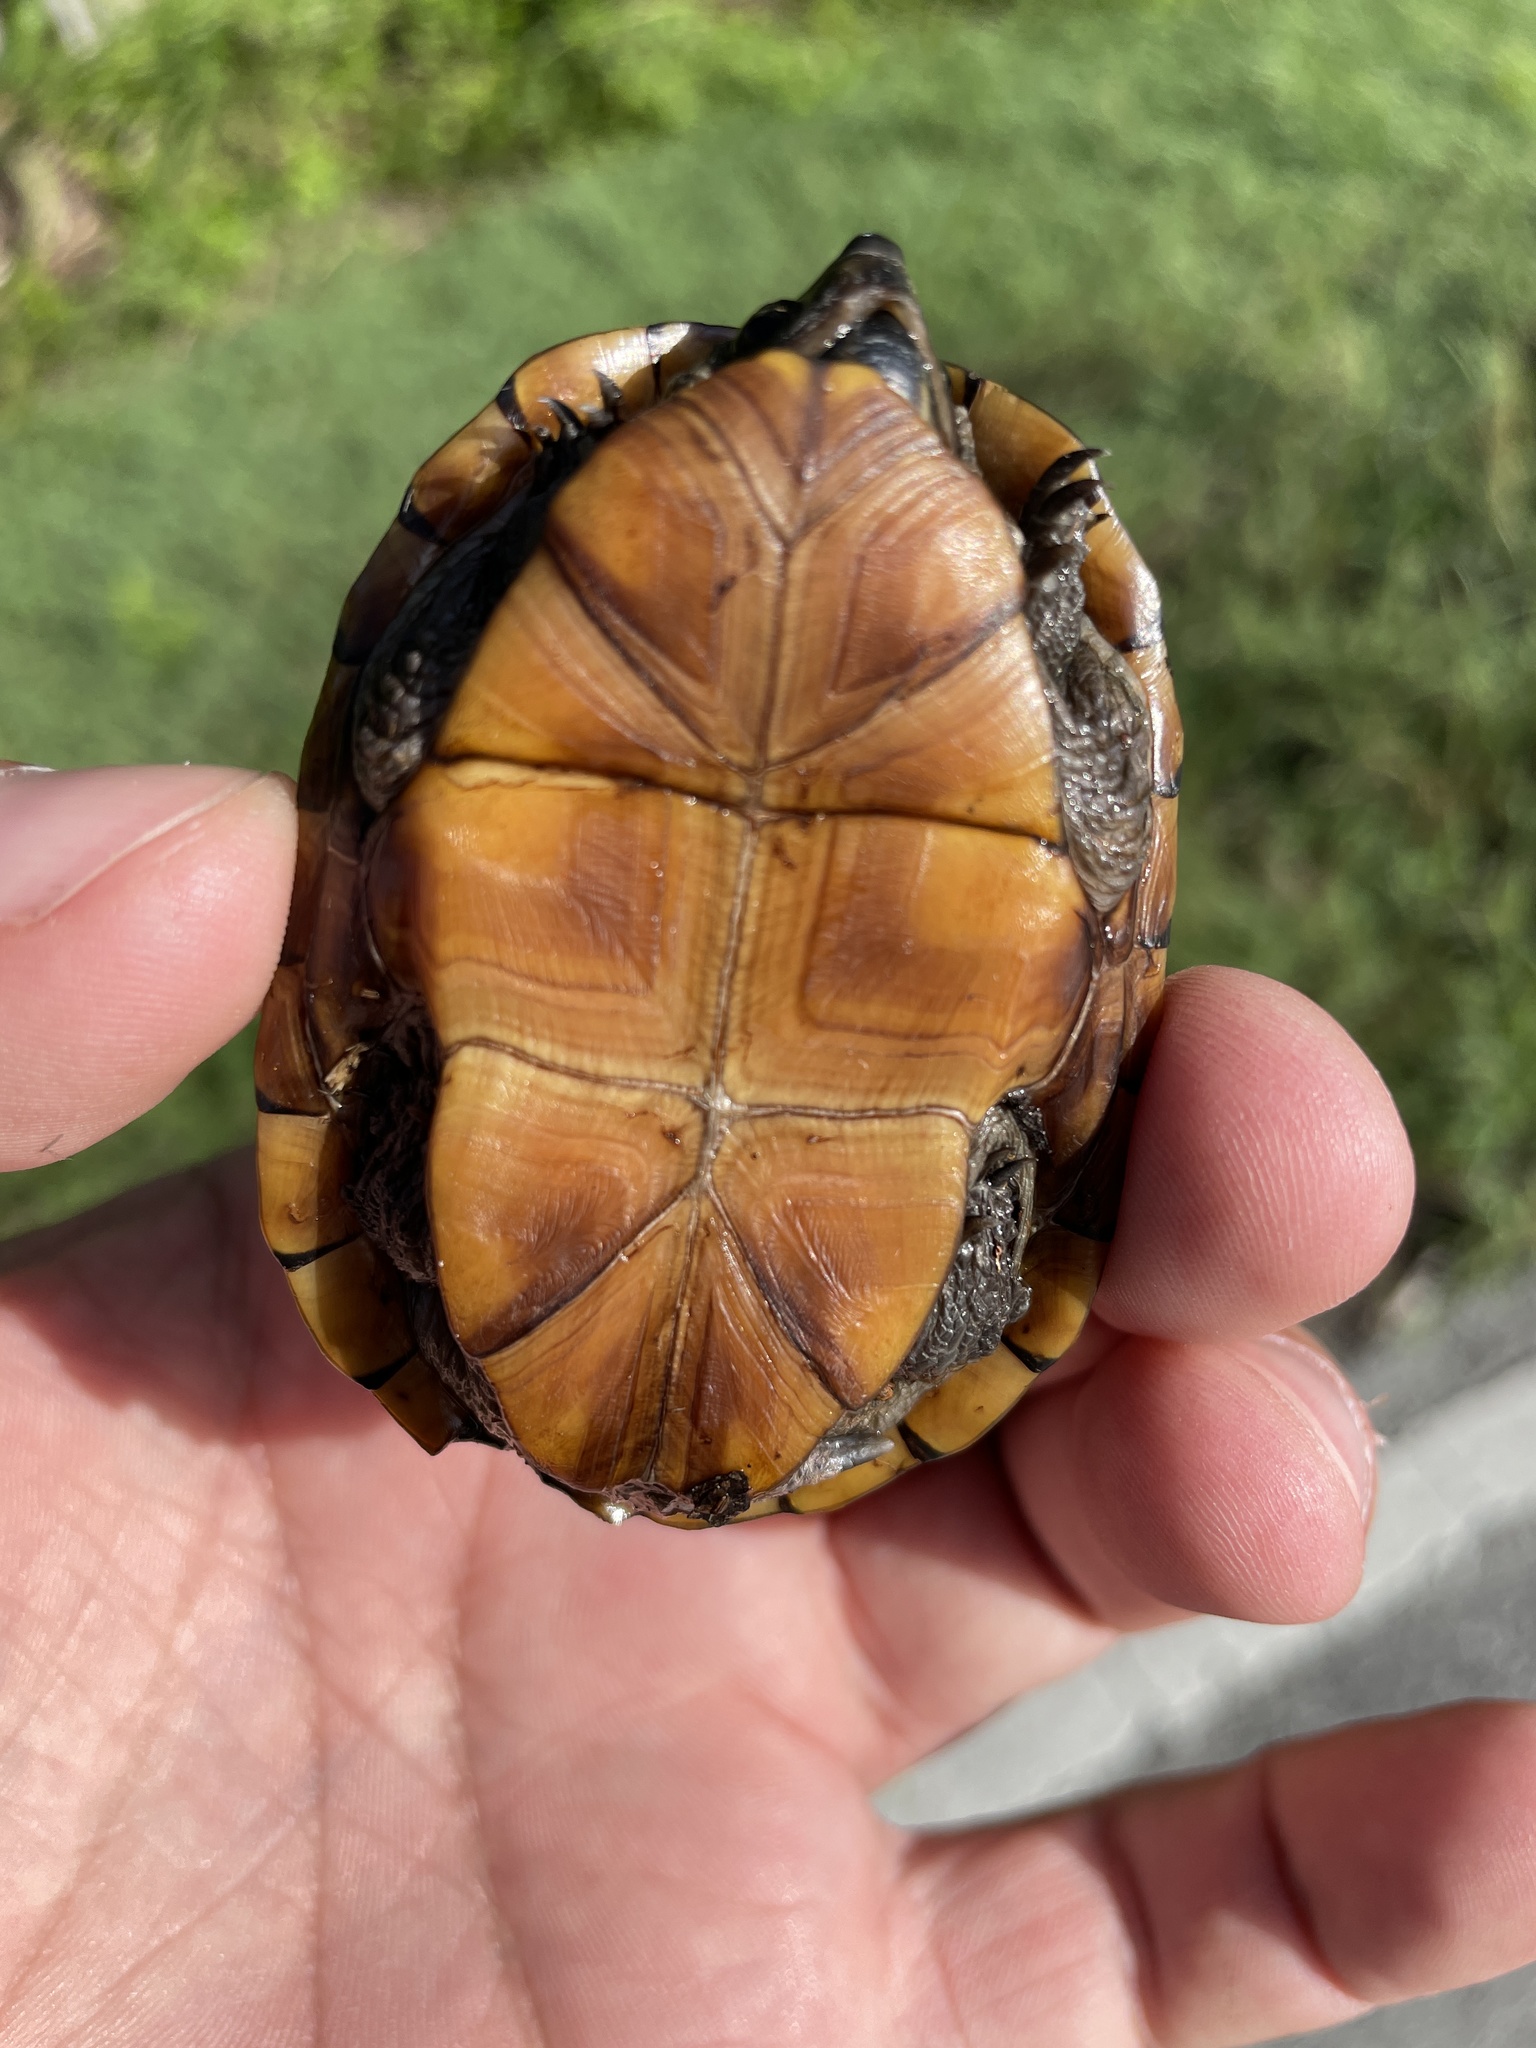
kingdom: Animalia
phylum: Chordata
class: Testudines
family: Kinosternidae
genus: Kinosternon
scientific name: Kinosternon baurii
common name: Striped mud turtle
